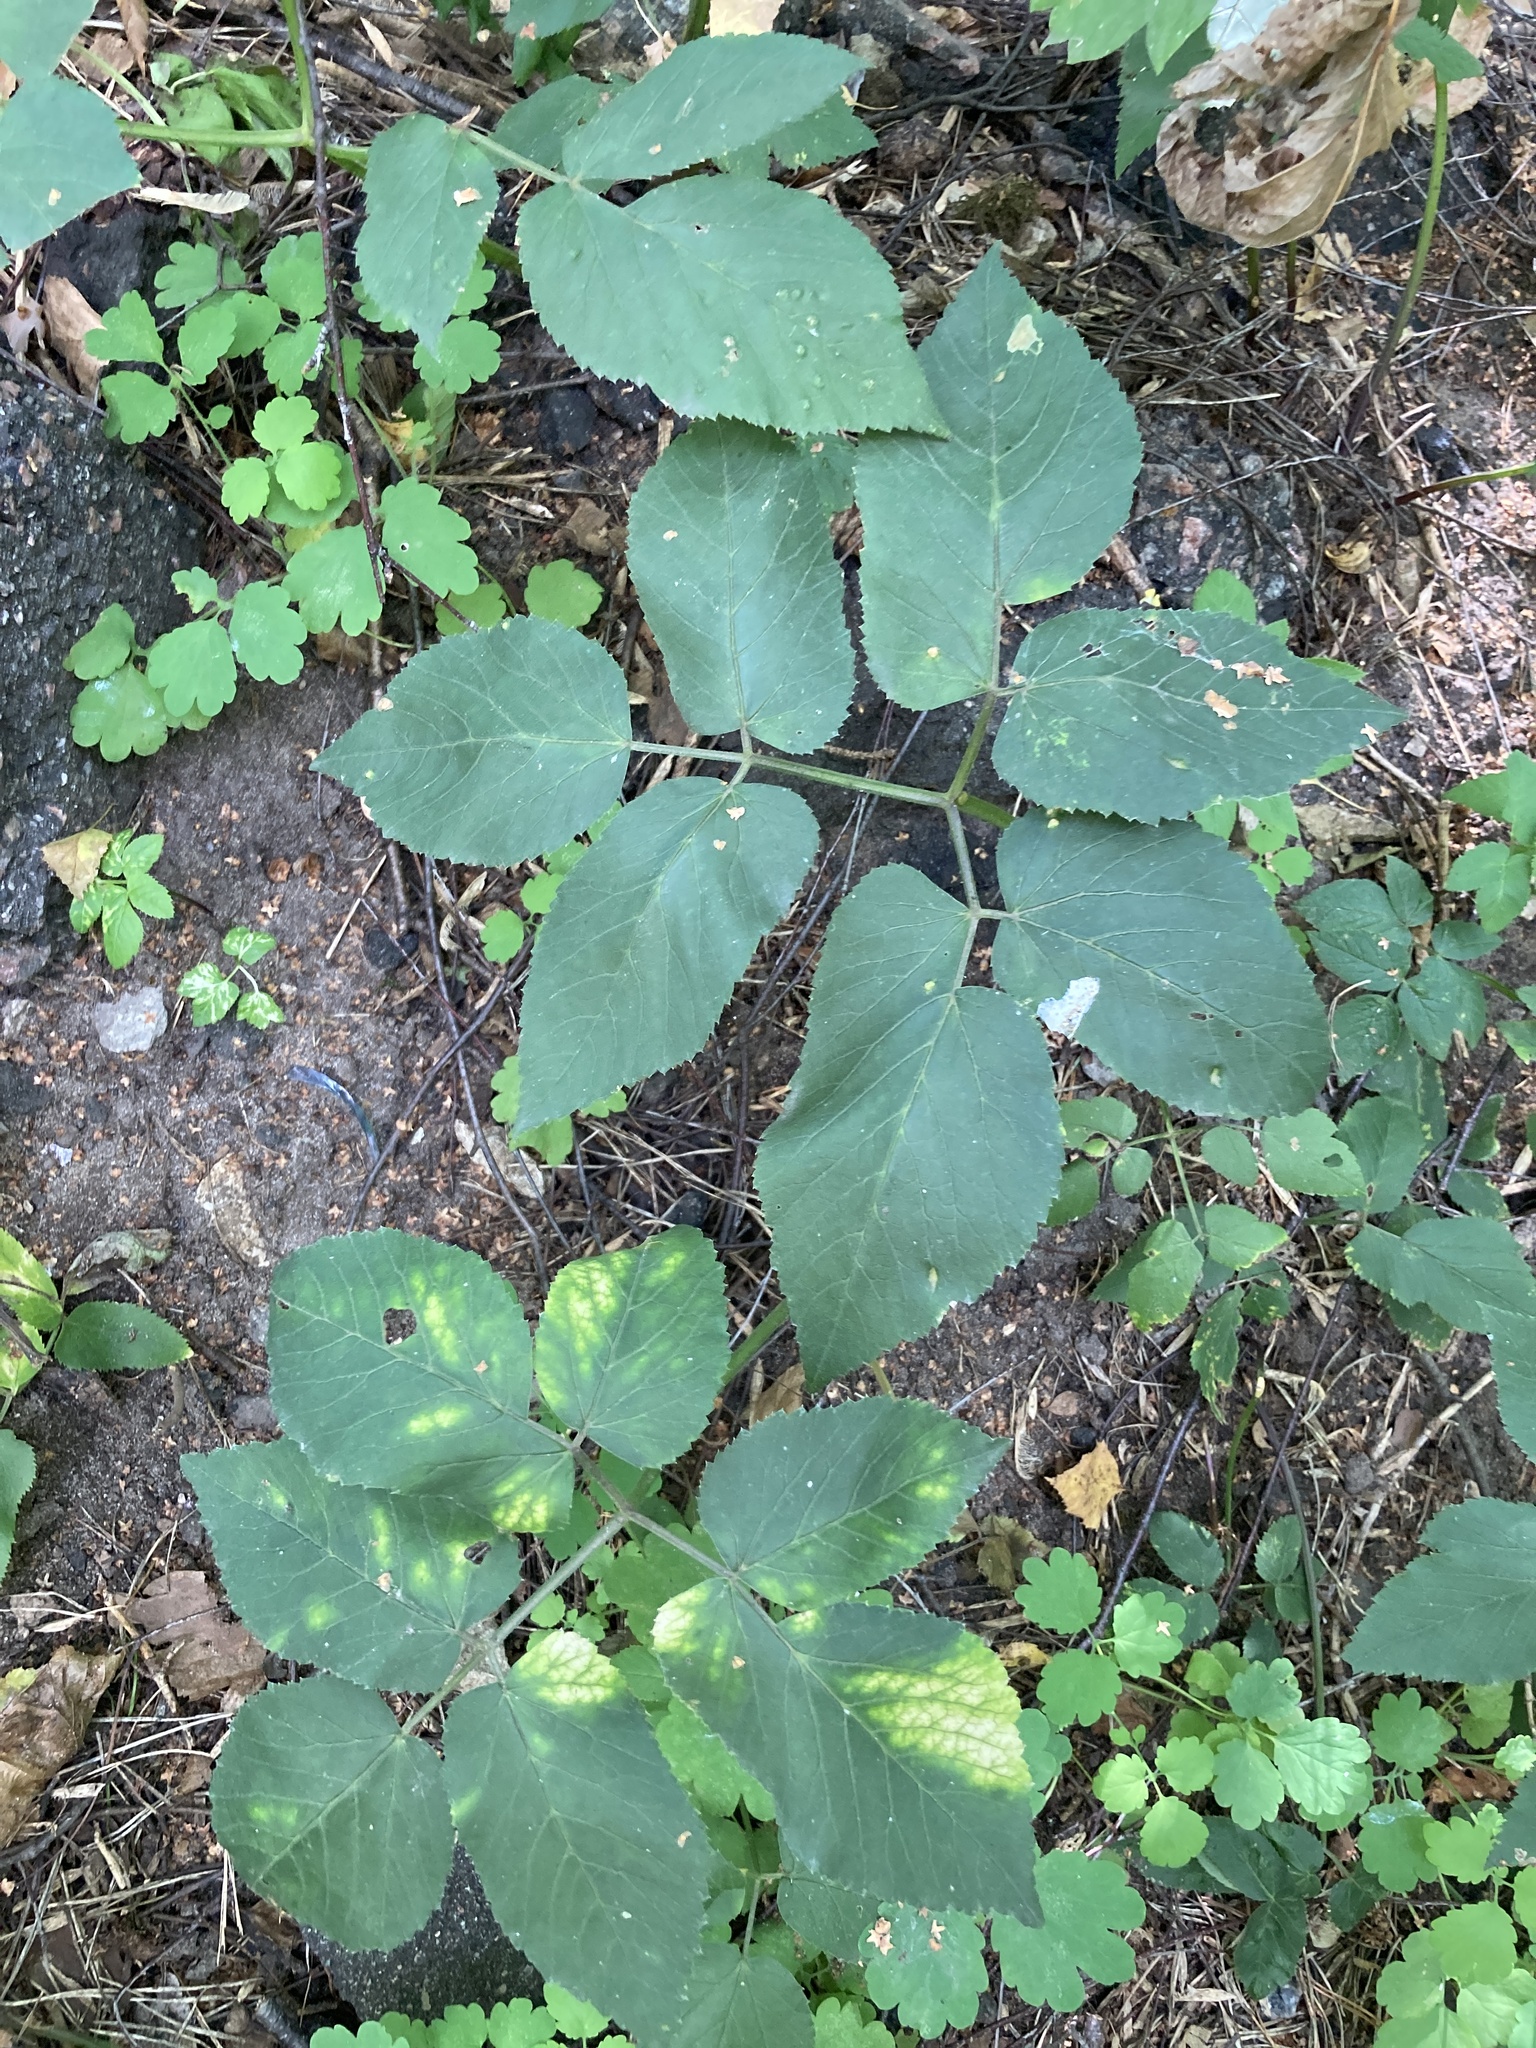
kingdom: Plantae
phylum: Tracheophyta
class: Magnoliopsida
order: Apiales
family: Apiaceae
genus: Aegopodium
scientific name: Aegopodium podagraria
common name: Ground-elder
